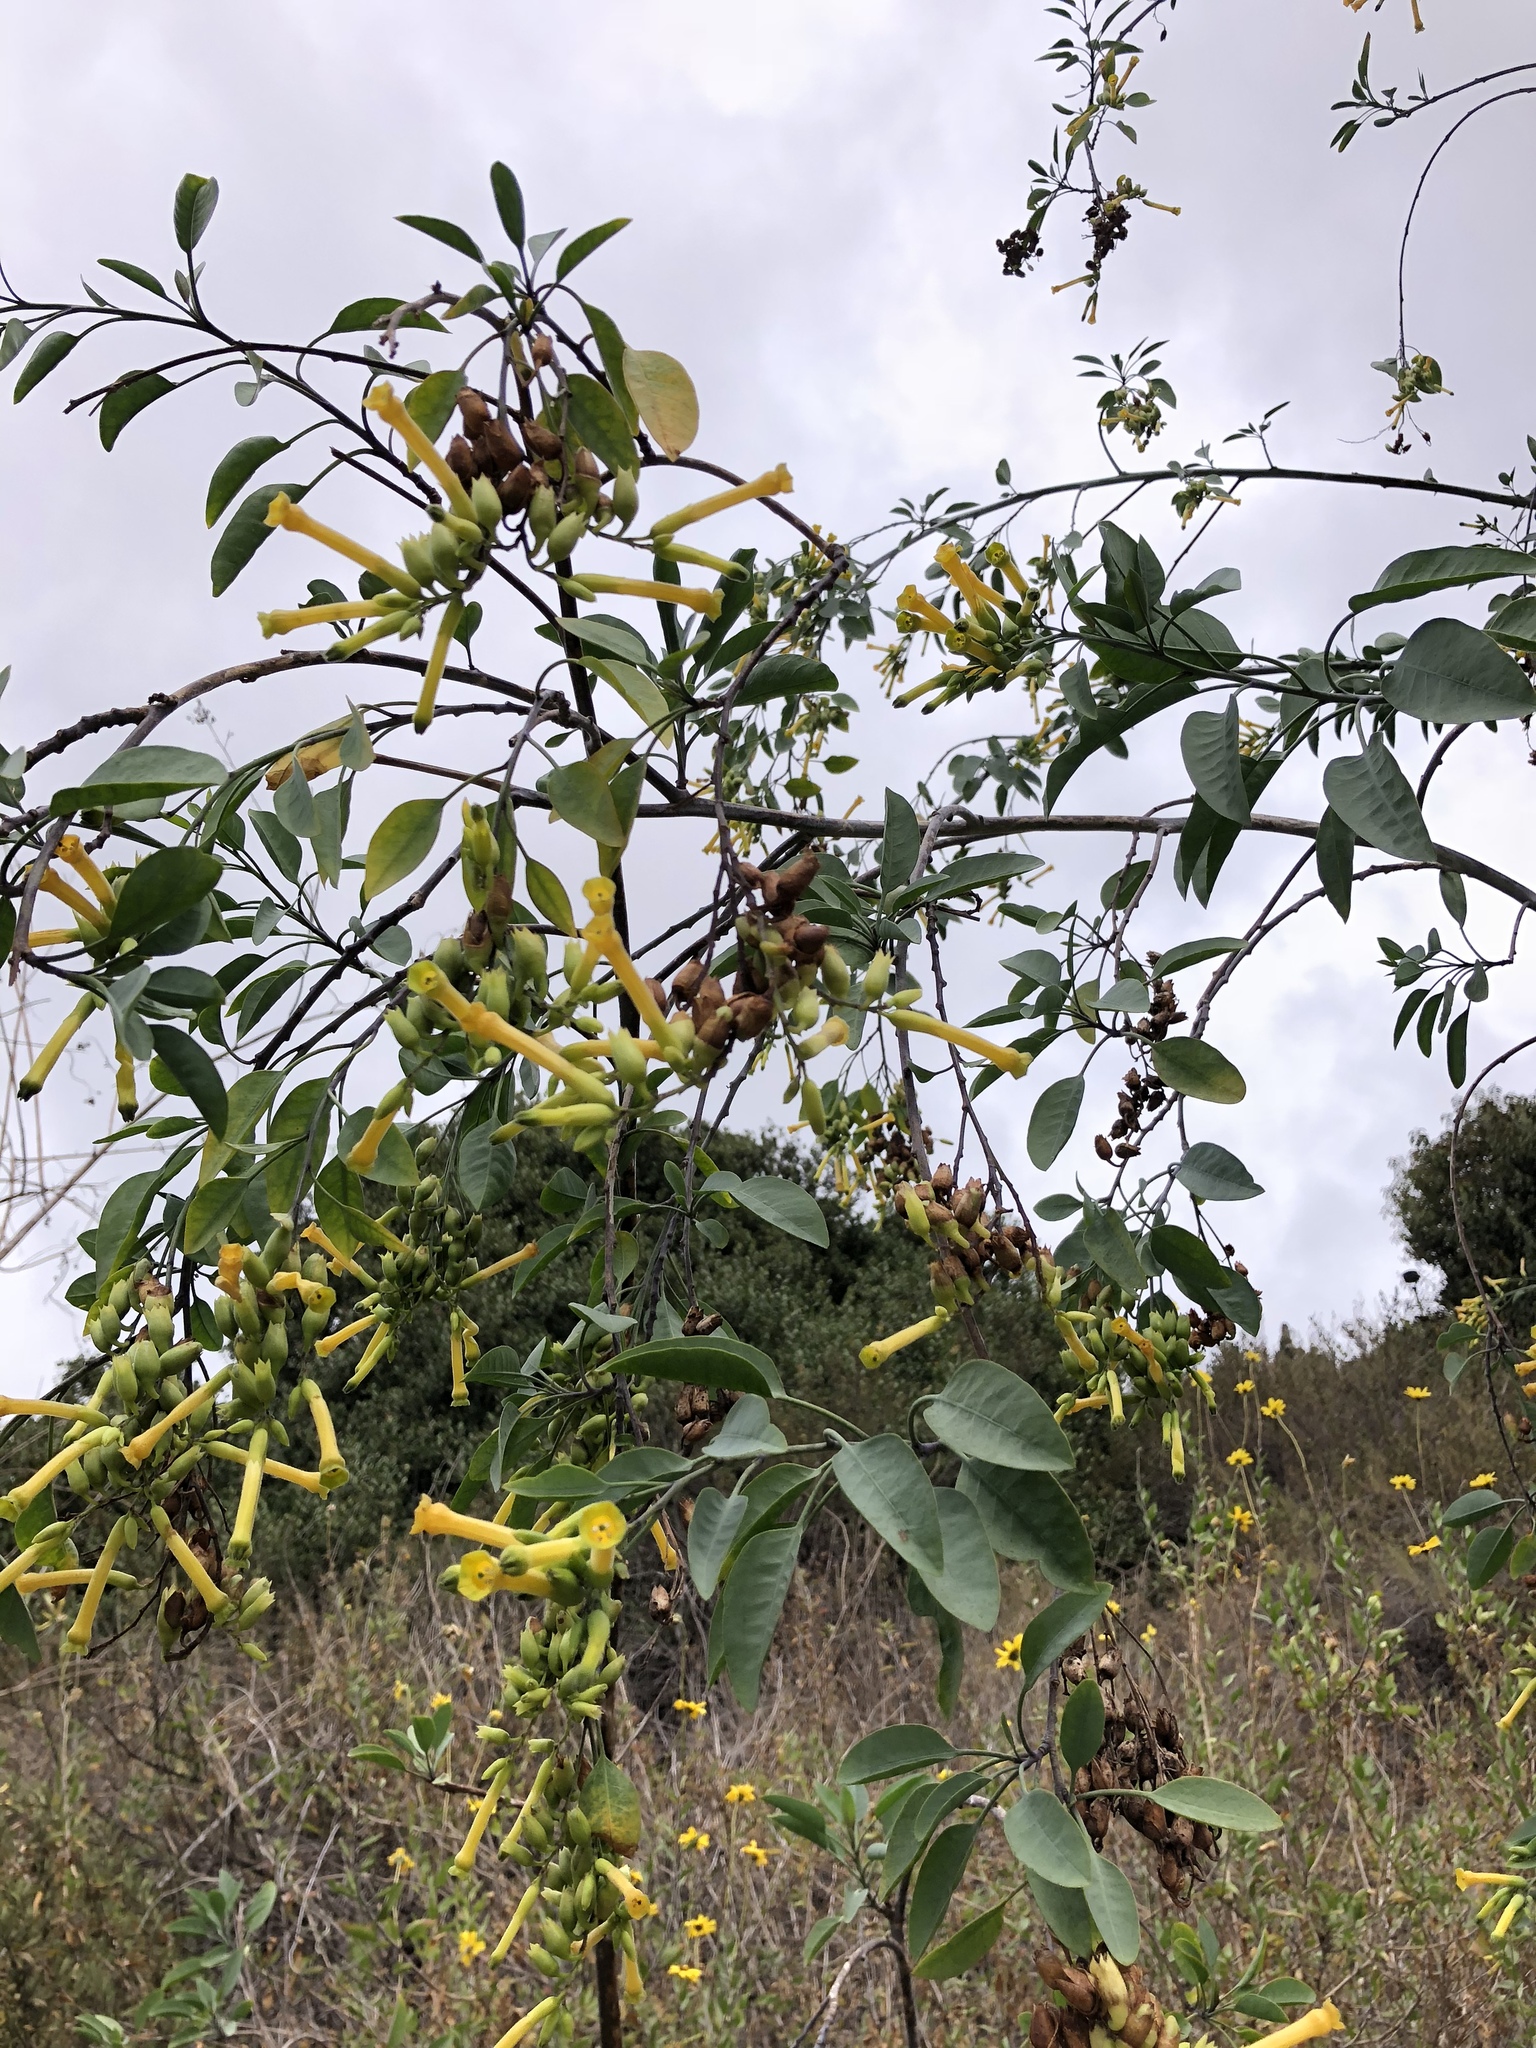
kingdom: Plantae
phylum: Tracheophyta
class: Magnoliopsida
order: Solanales
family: Solanaceae
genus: Nicotiana
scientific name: Nicotiana glauca
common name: Tree tobacco
